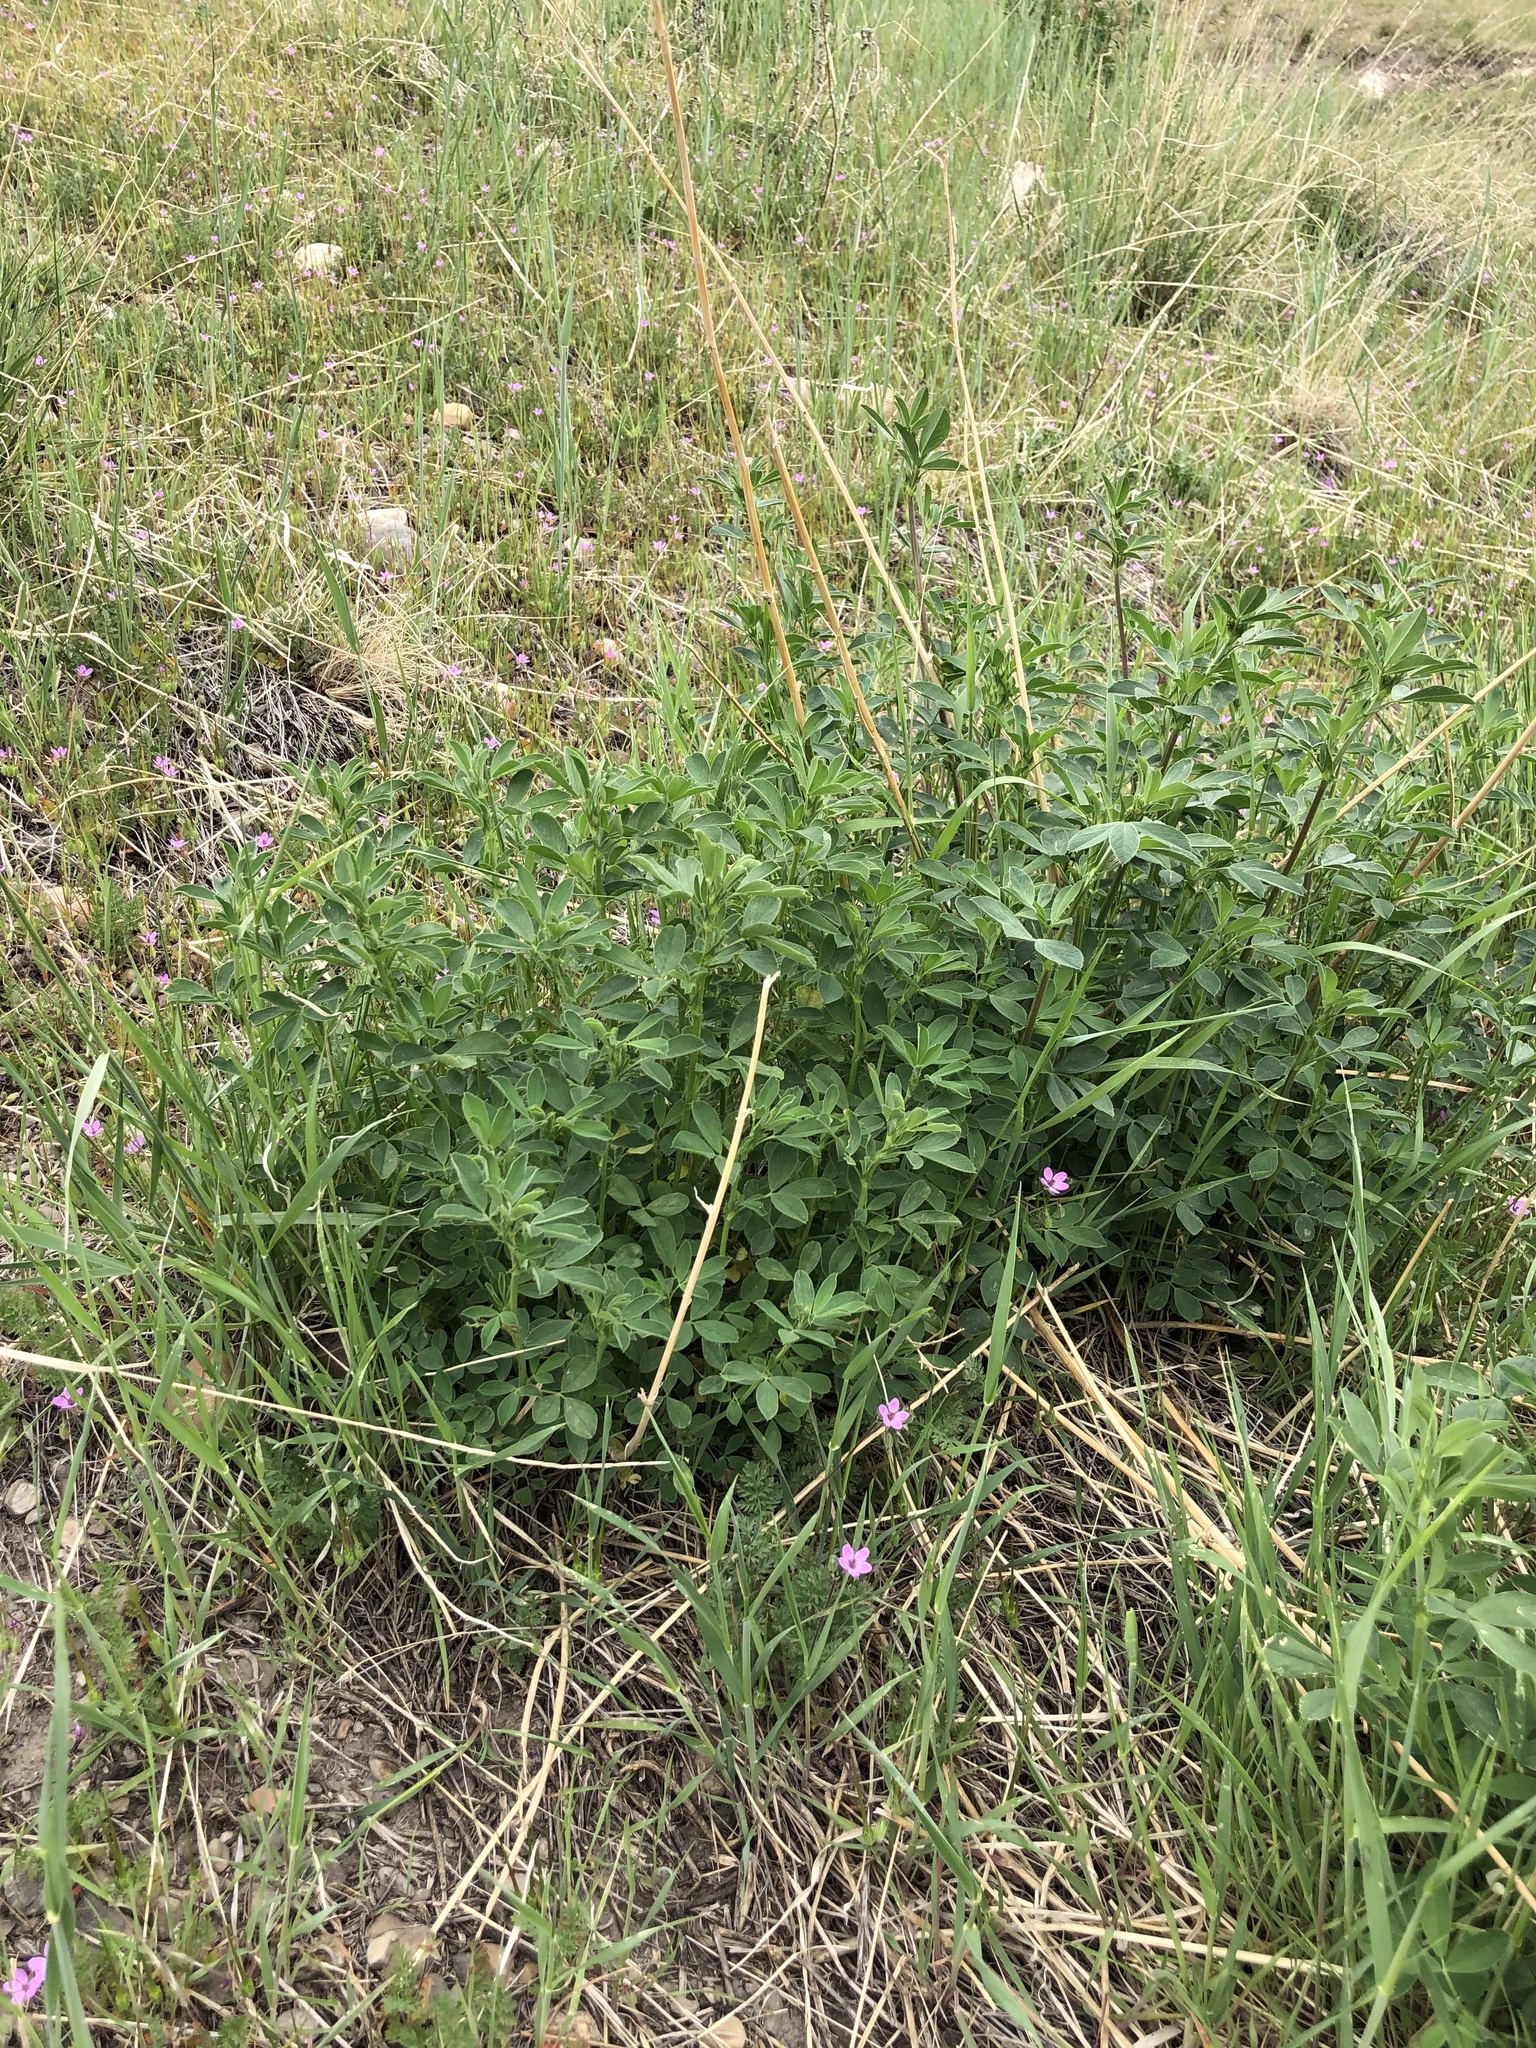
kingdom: Plantae
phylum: Tracheophyta
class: Magnoliopsida
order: Fabales
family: Fabaceae
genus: Medicago
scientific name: Medicago sativa
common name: Alfalfa
